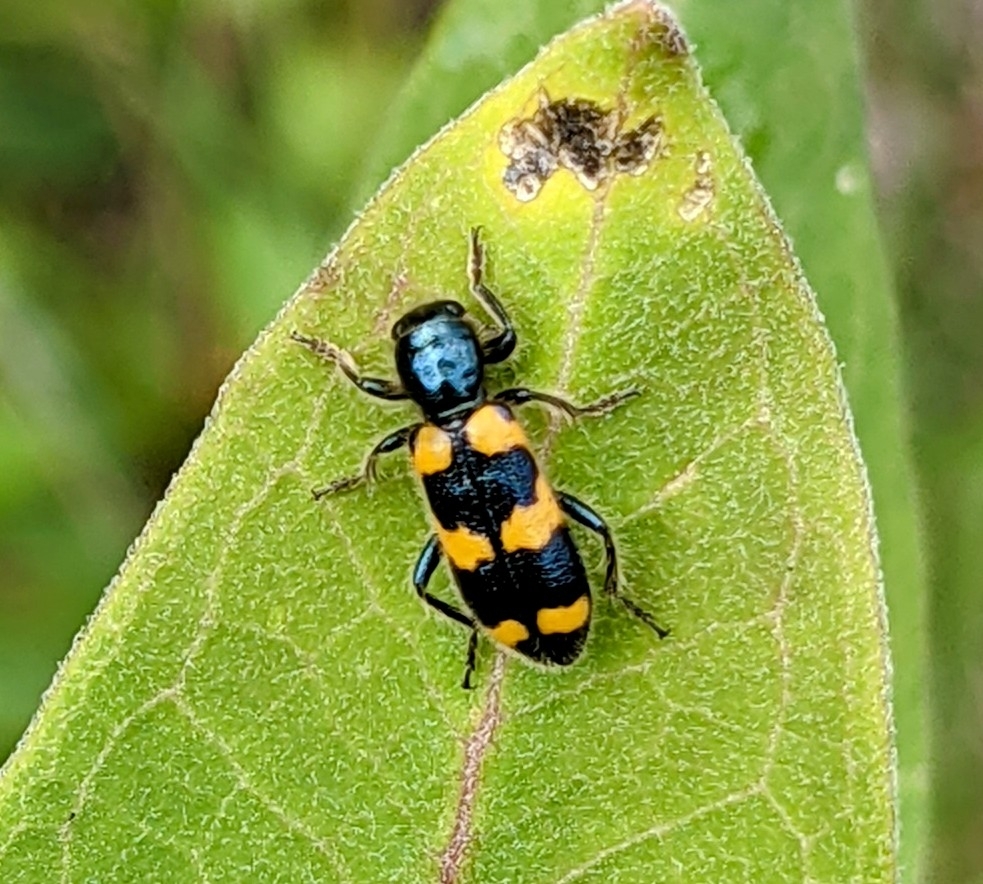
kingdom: Animalia
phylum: Arthropoda
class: Insecta
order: Coleoptera
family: Cleridae
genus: Trichodes
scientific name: Trichodes nutalli
